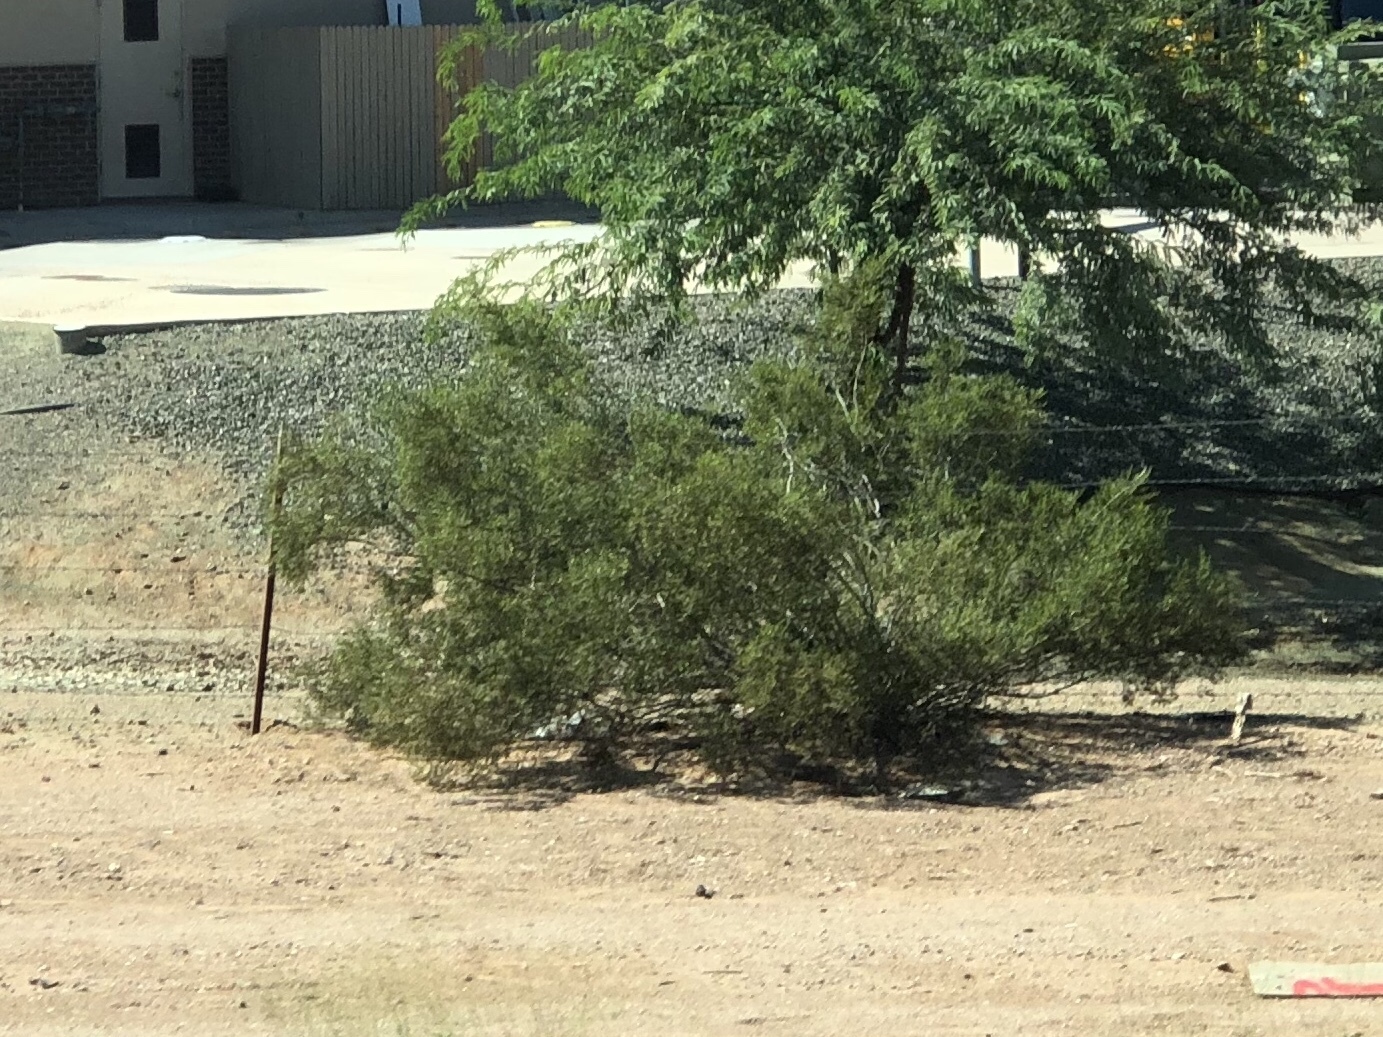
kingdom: Plantae
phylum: Tracheophyta
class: Magnoliopsida
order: Zygophyllales
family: Zygophyllaceae
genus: Larrea
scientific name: Larrea tridentata
